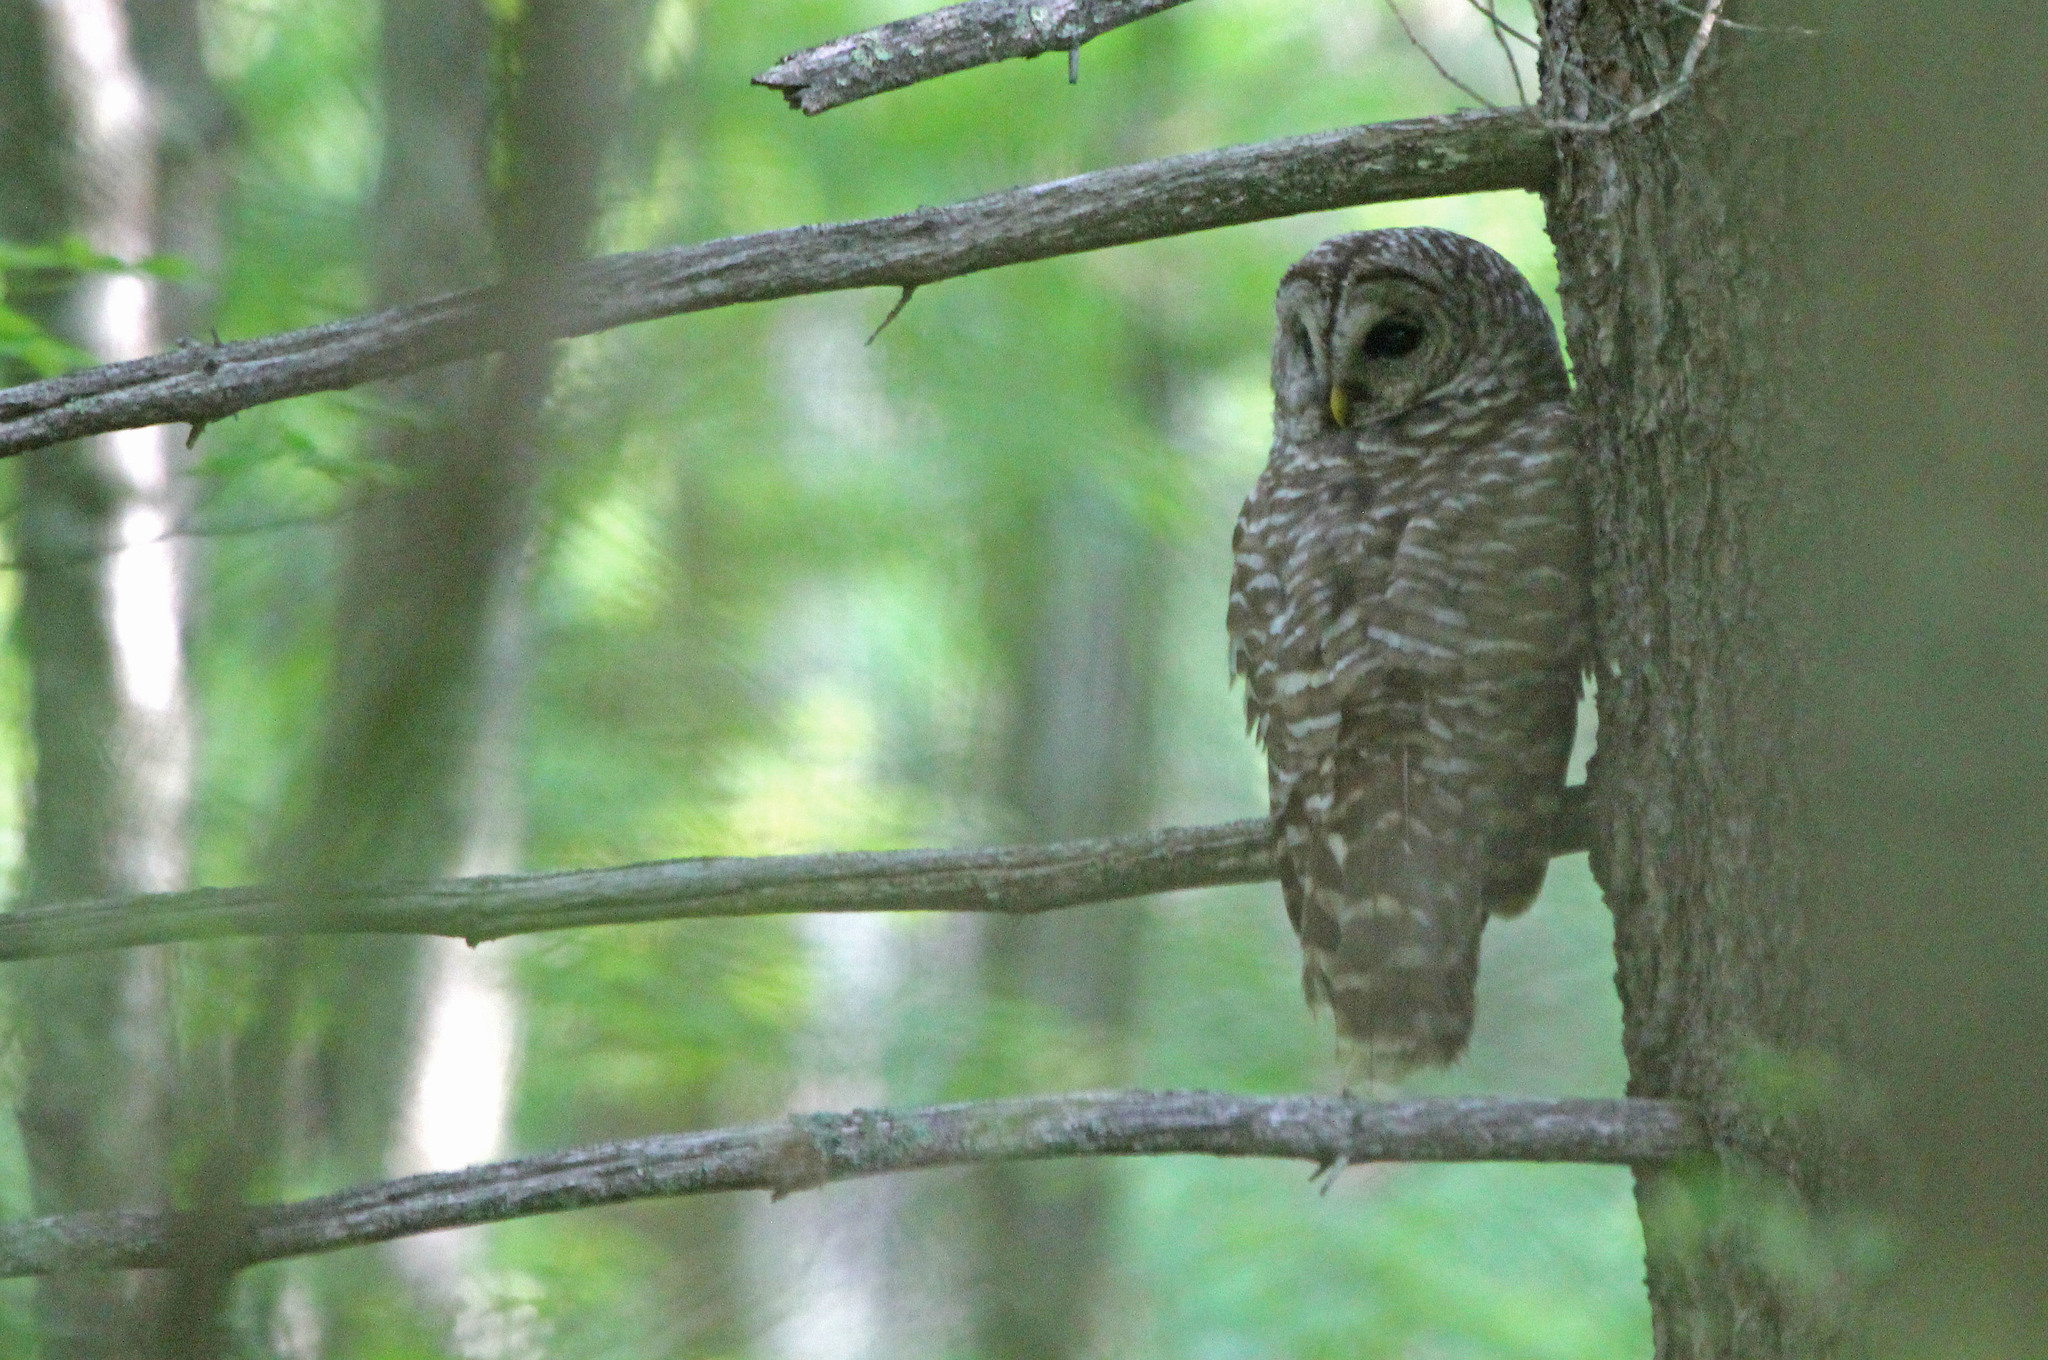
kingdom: Animalia
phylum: Chordata
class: Aves
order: Strigiformes
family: Strigidae
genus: Strix
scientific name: Strix varia
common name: Barred owl
